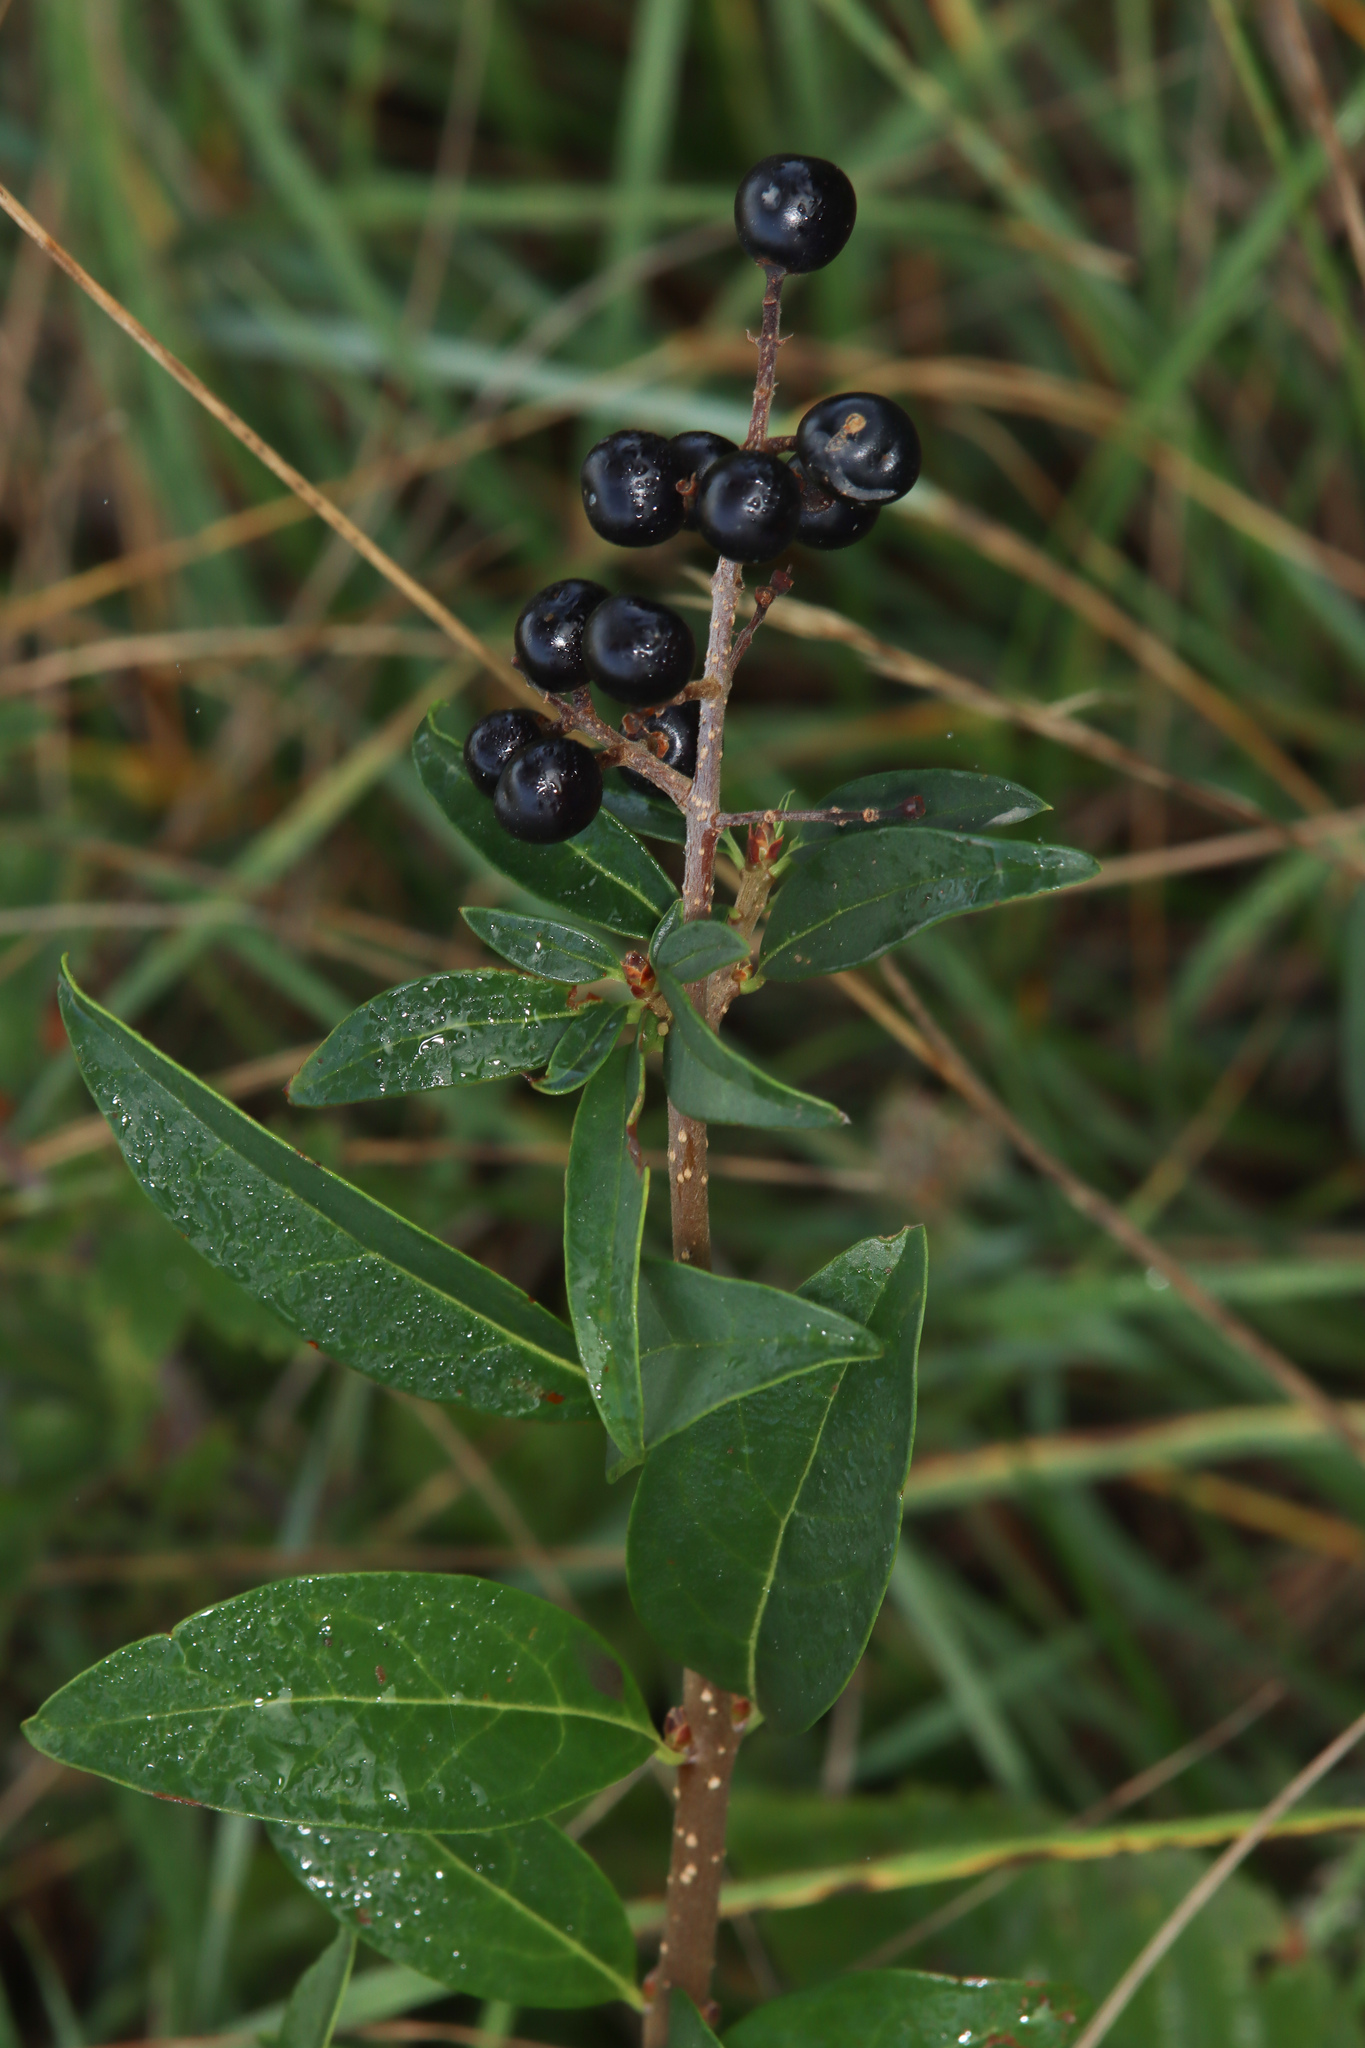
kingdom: Plantae
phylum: Tracheophyta
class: Magnoliopsida
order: Lamiales
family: Oleaceae
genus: Ligustrum
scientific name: Ligustrum vulgare
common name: Wild privet
